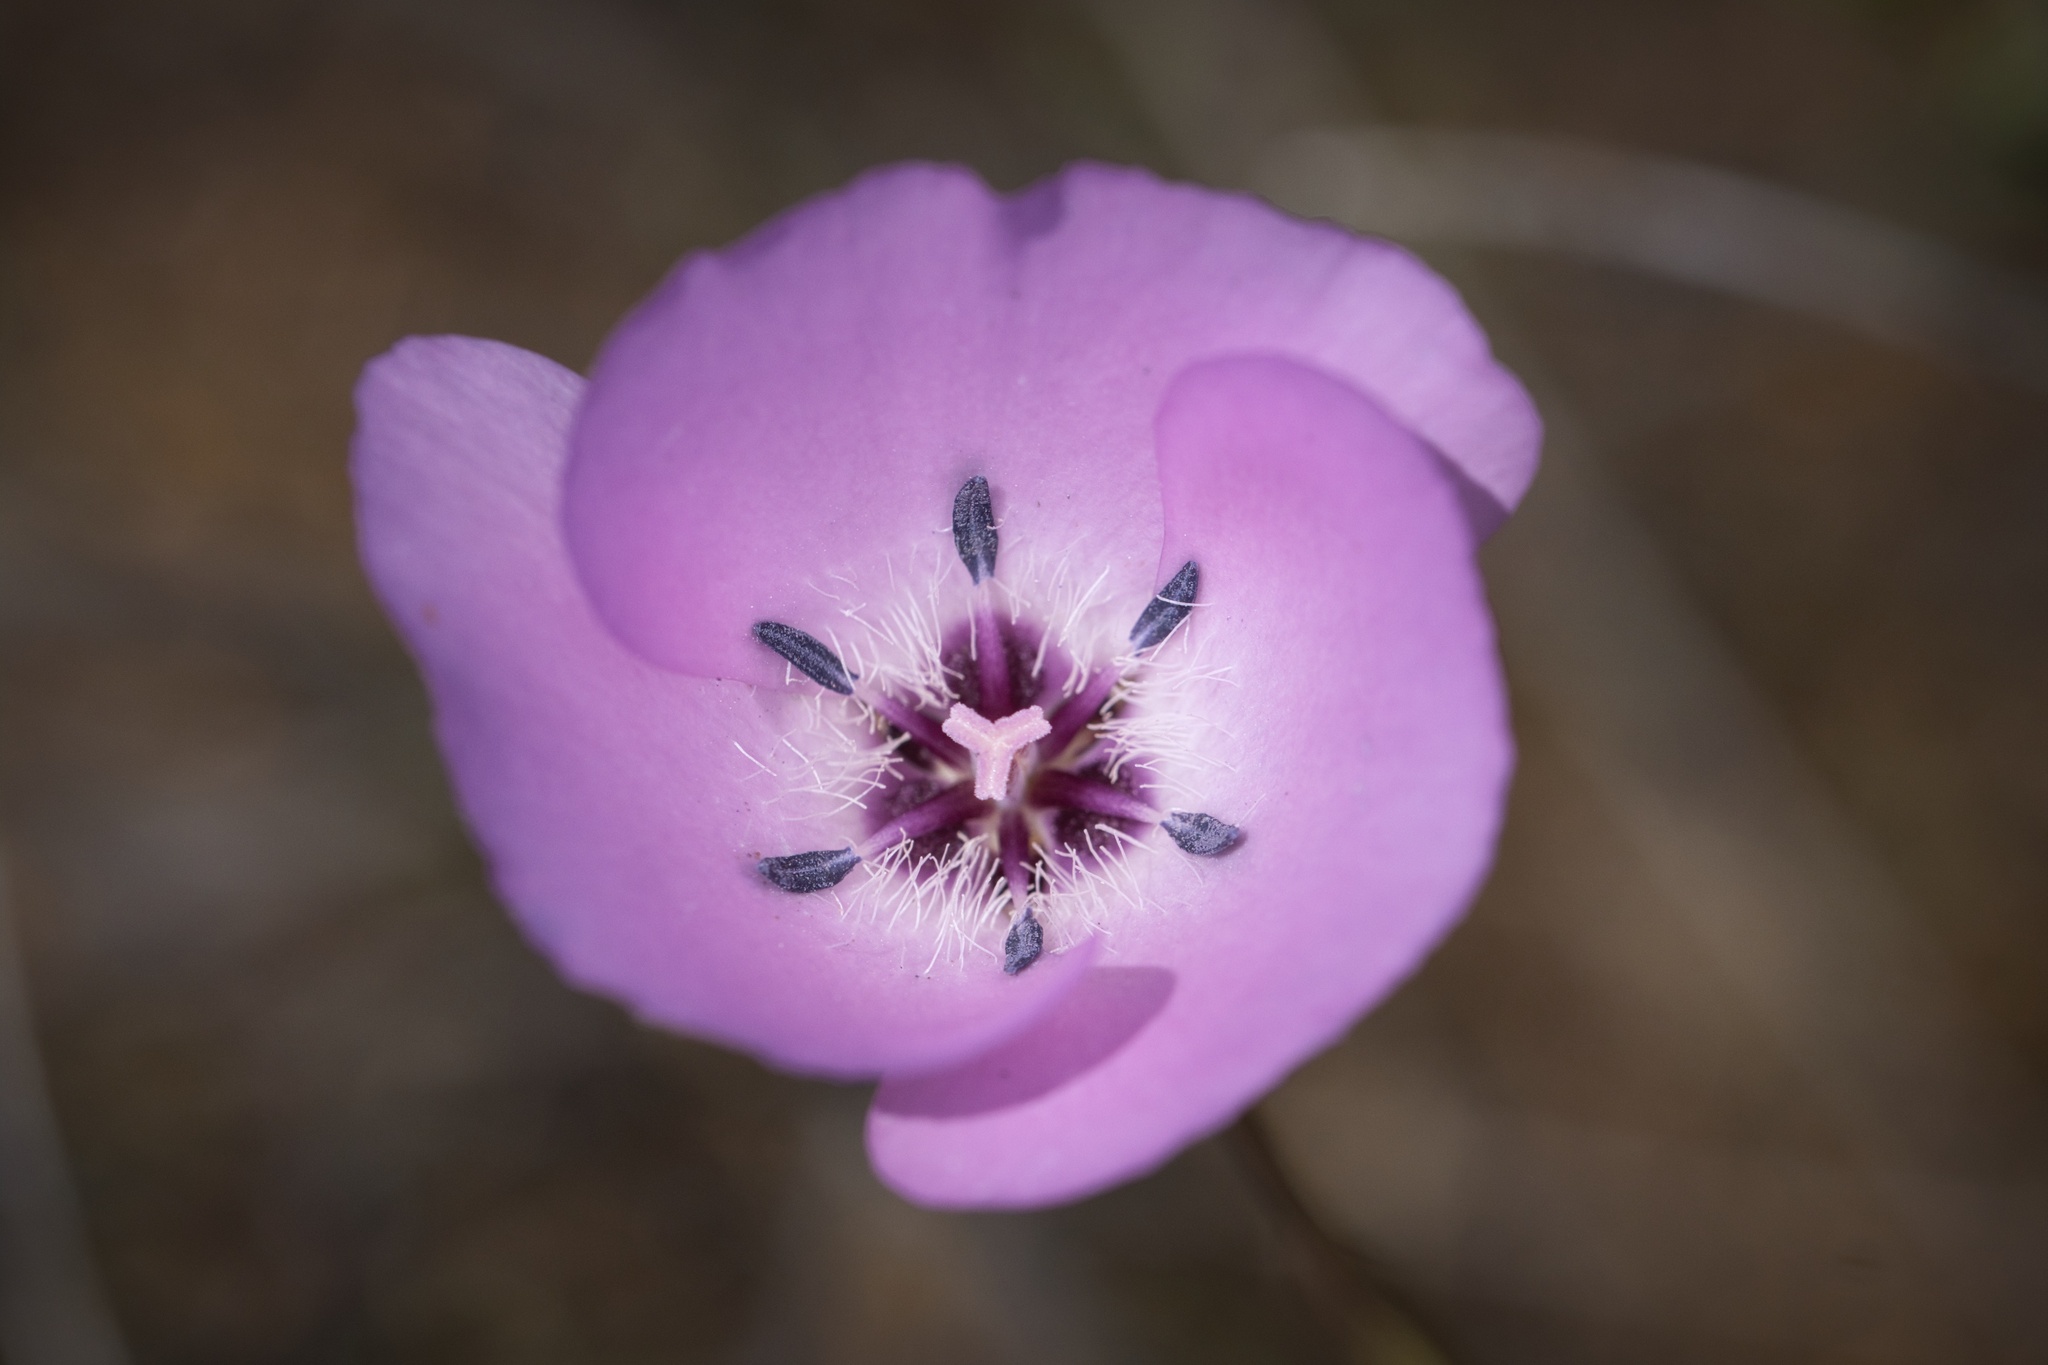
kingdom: Plantae
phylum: Tracheophyta
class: Liliopsida
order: Liliales
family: Liliaceae
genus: Calochortus
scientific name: Calochortus splendens
